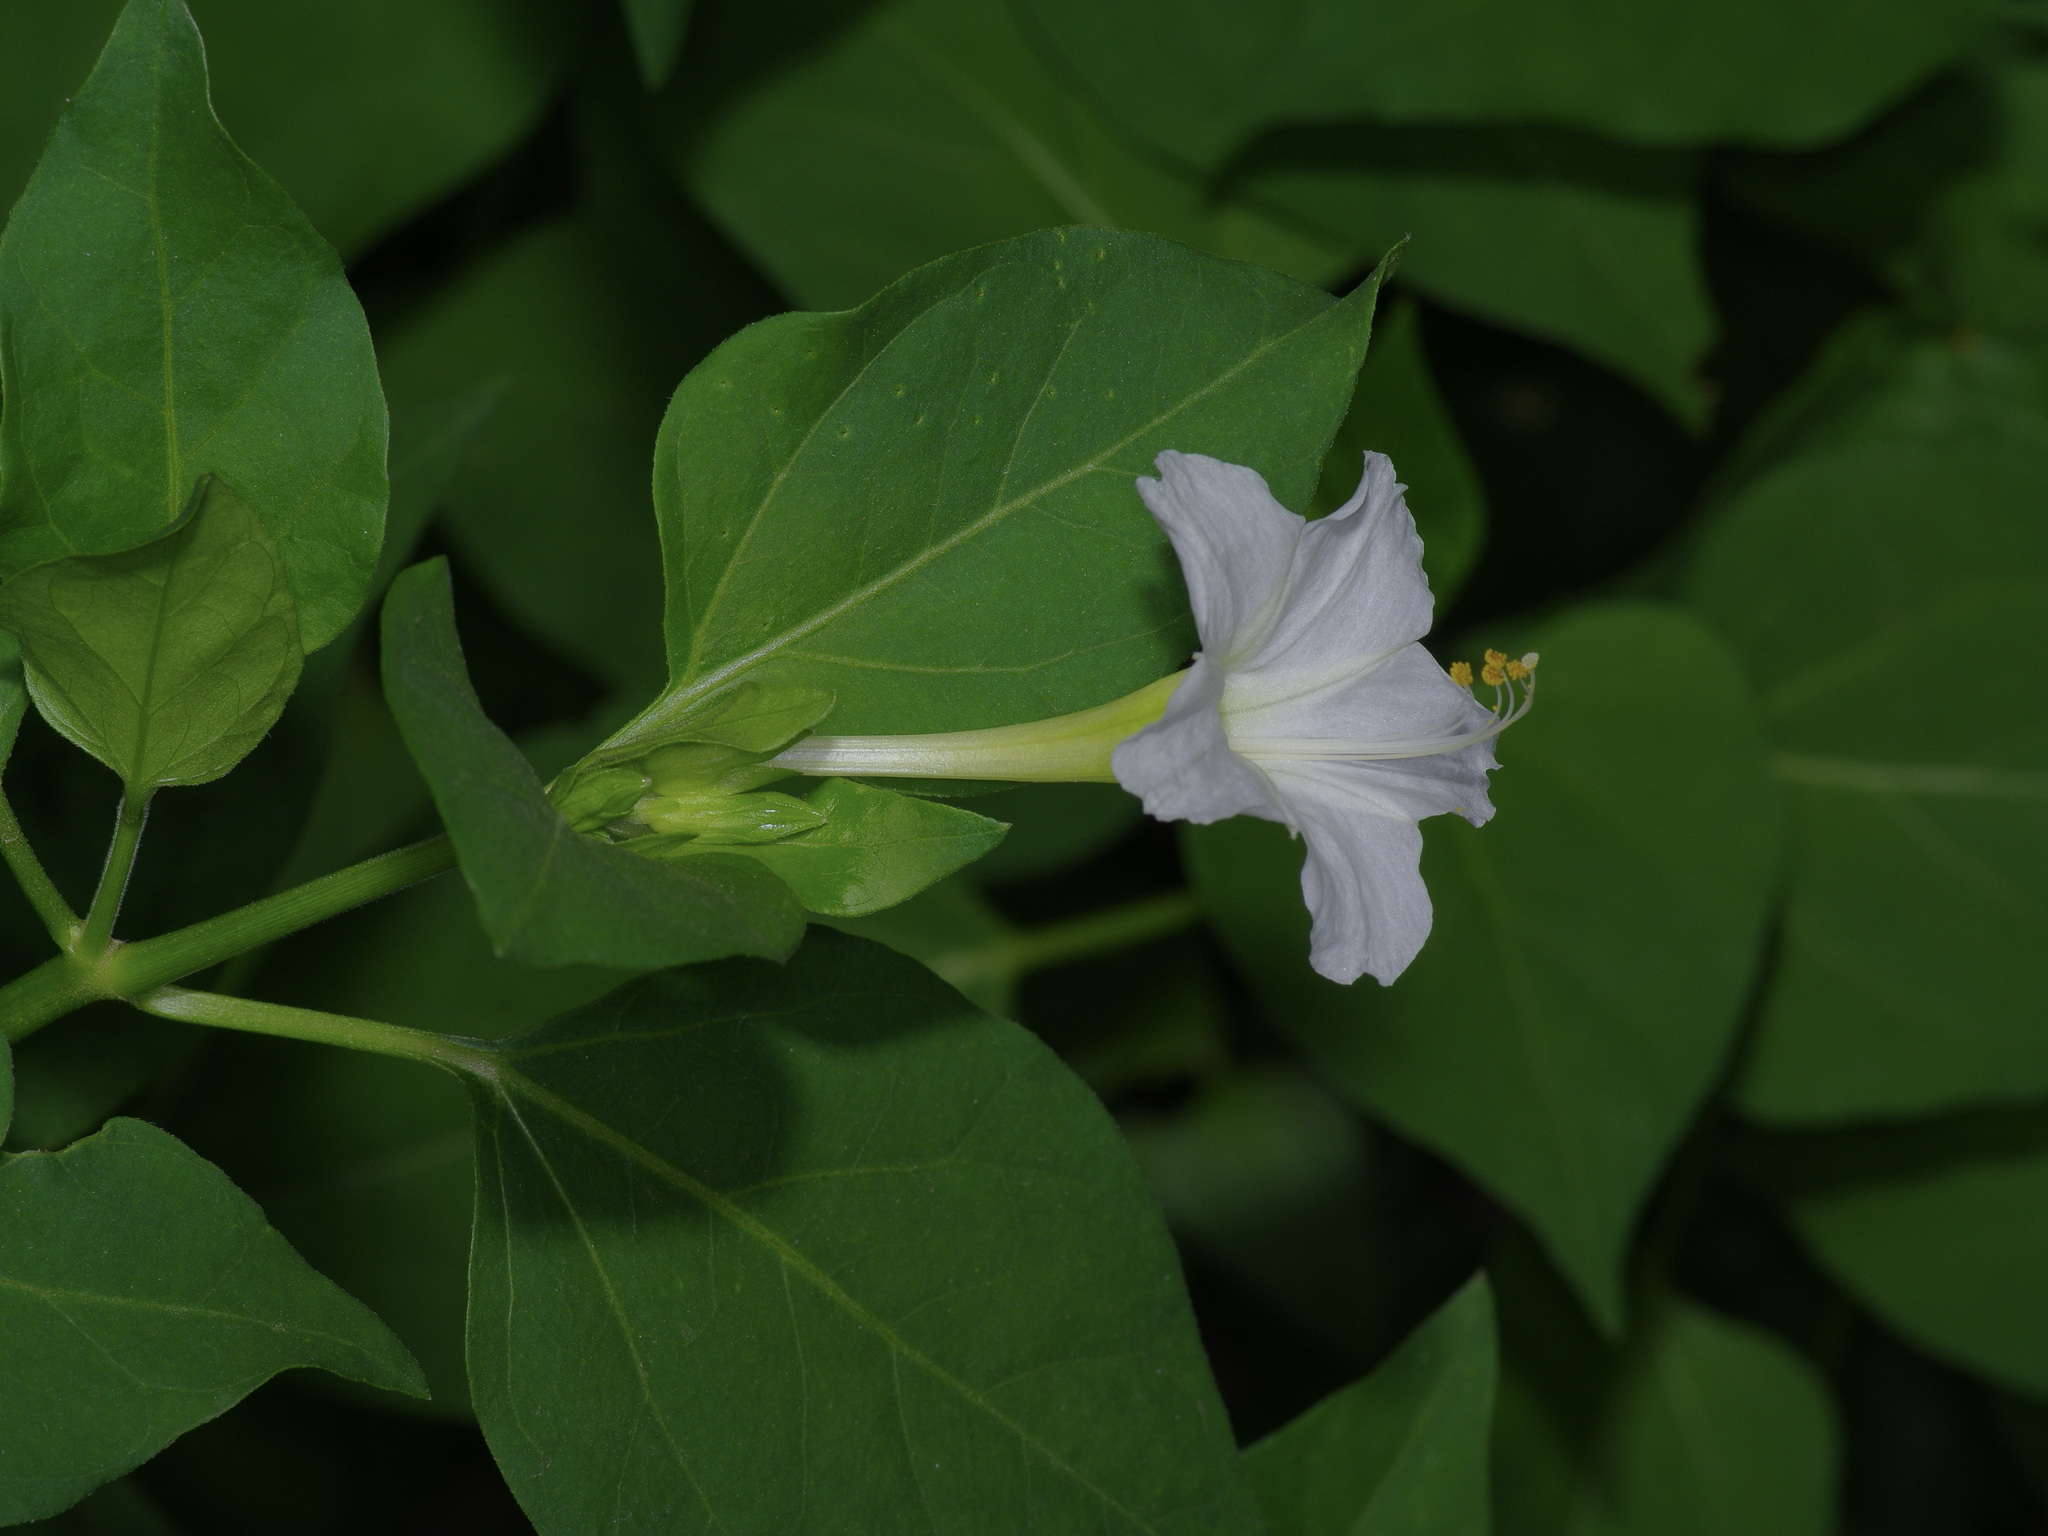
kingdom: Plantae
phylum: Tracheophyta
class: Magnoliopsida
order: Caryophyllales
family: Nyctaginaceae
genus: Mirabilis
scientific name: Mirabilis jalapa
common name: Marvel-of-peru
